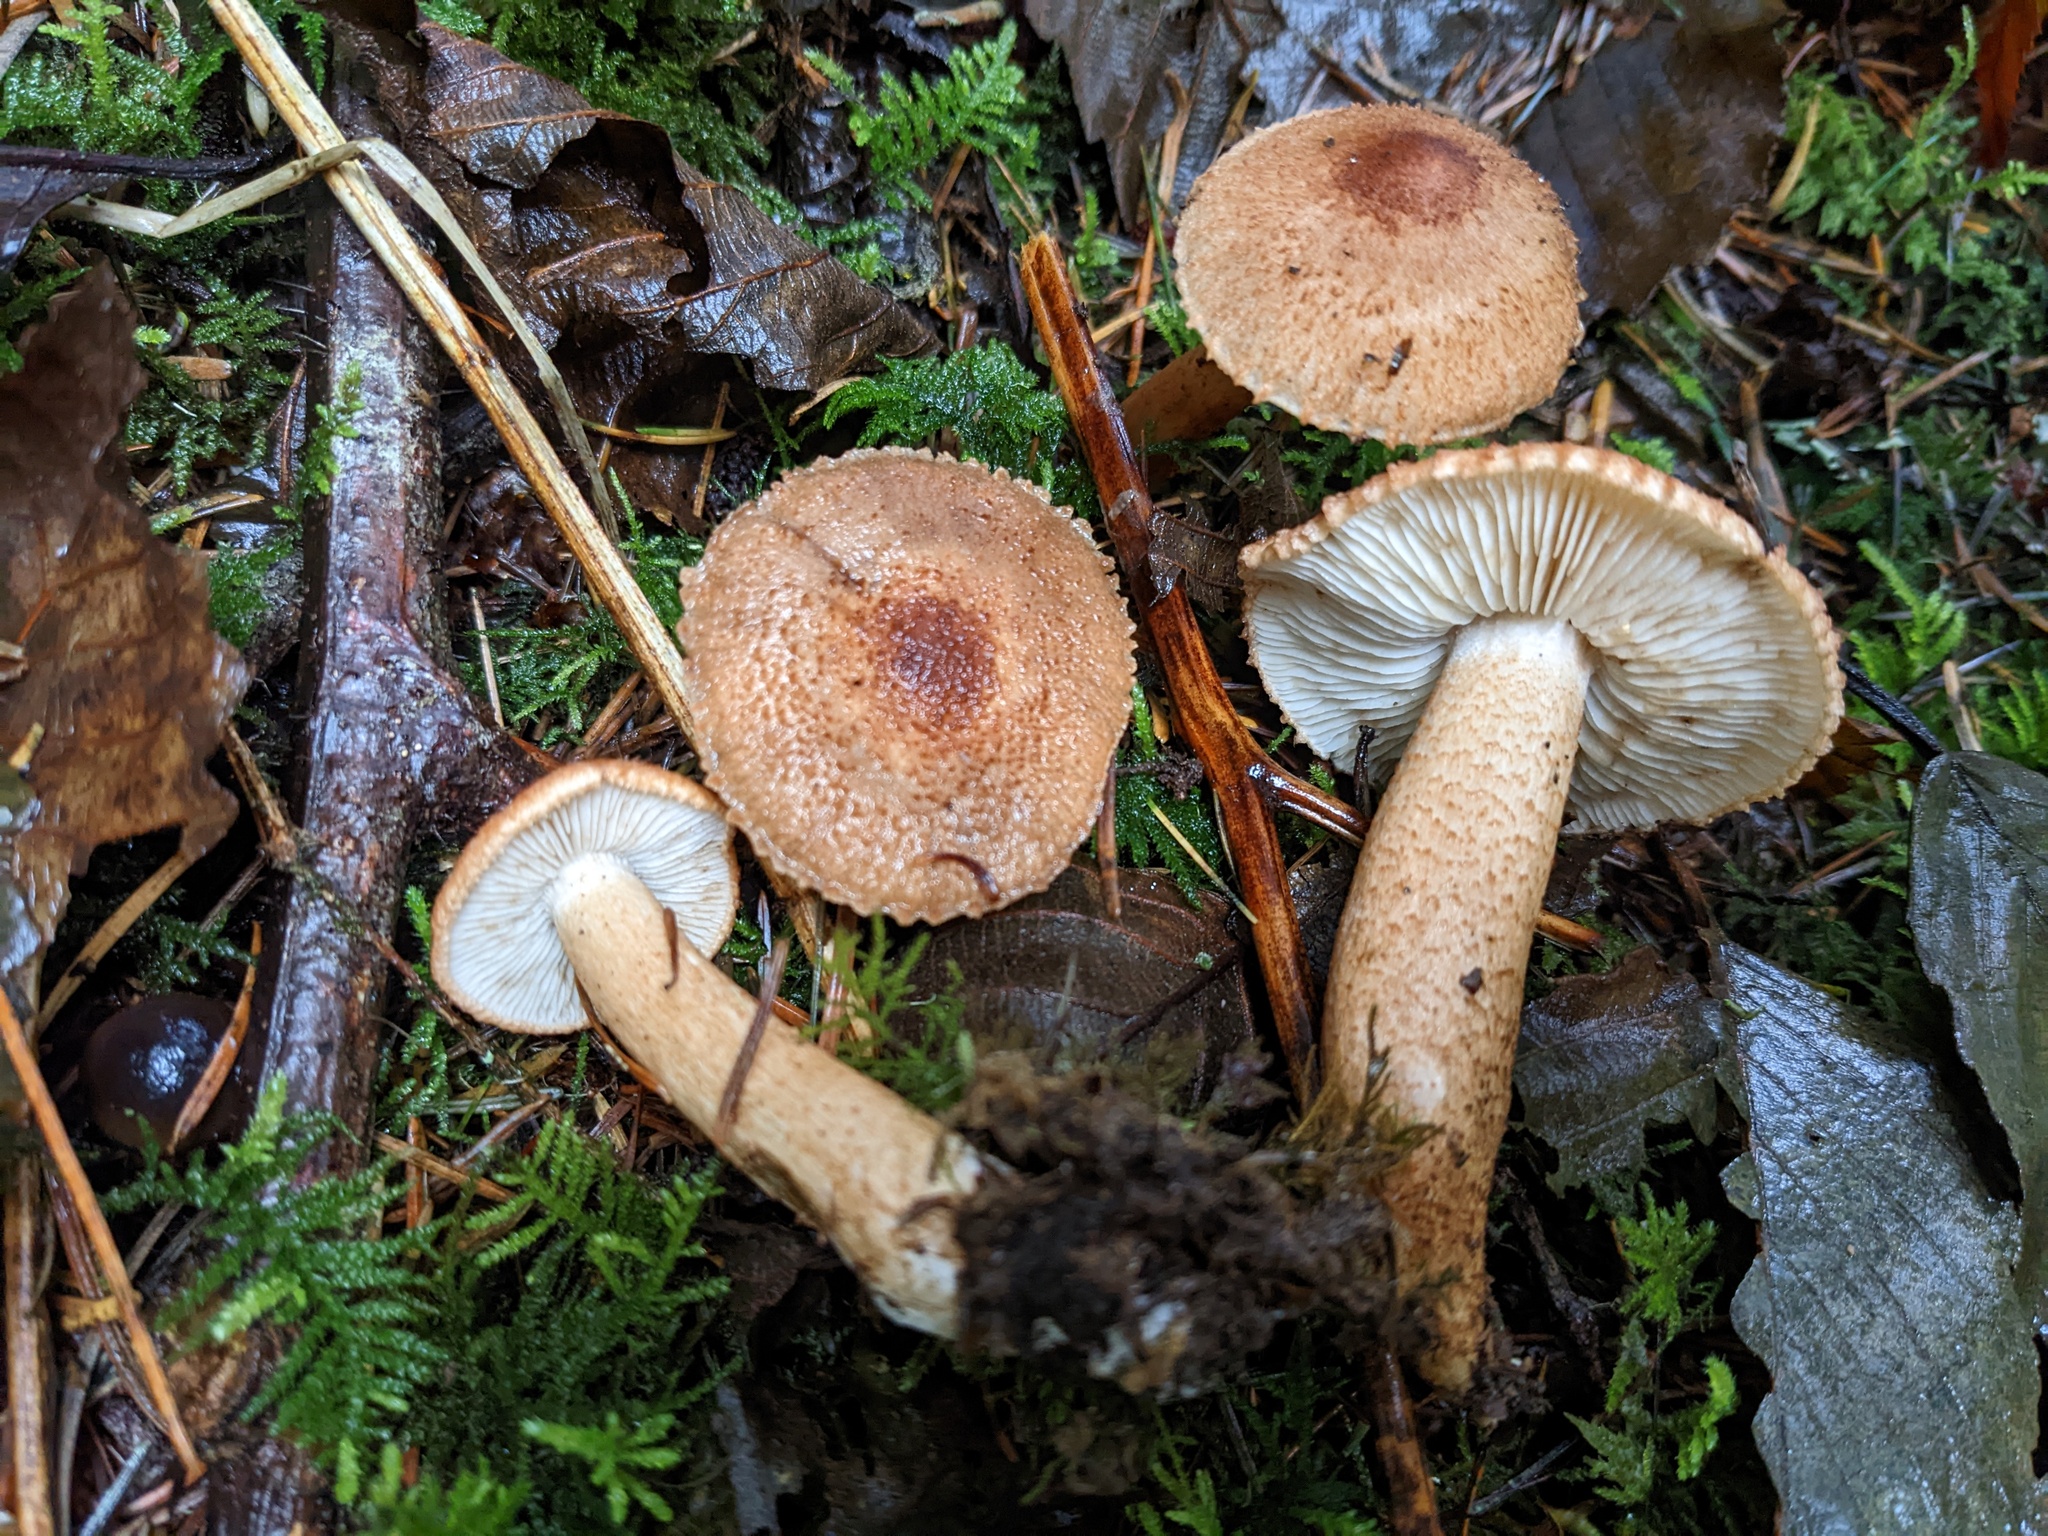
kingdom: Fungi
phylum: Basidiomycota
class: Agaricomycetes
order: Agaricales
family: Tricholomataceae
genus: Tricholoma
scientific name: Tricholoma vaccinum
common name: Scaly knight
